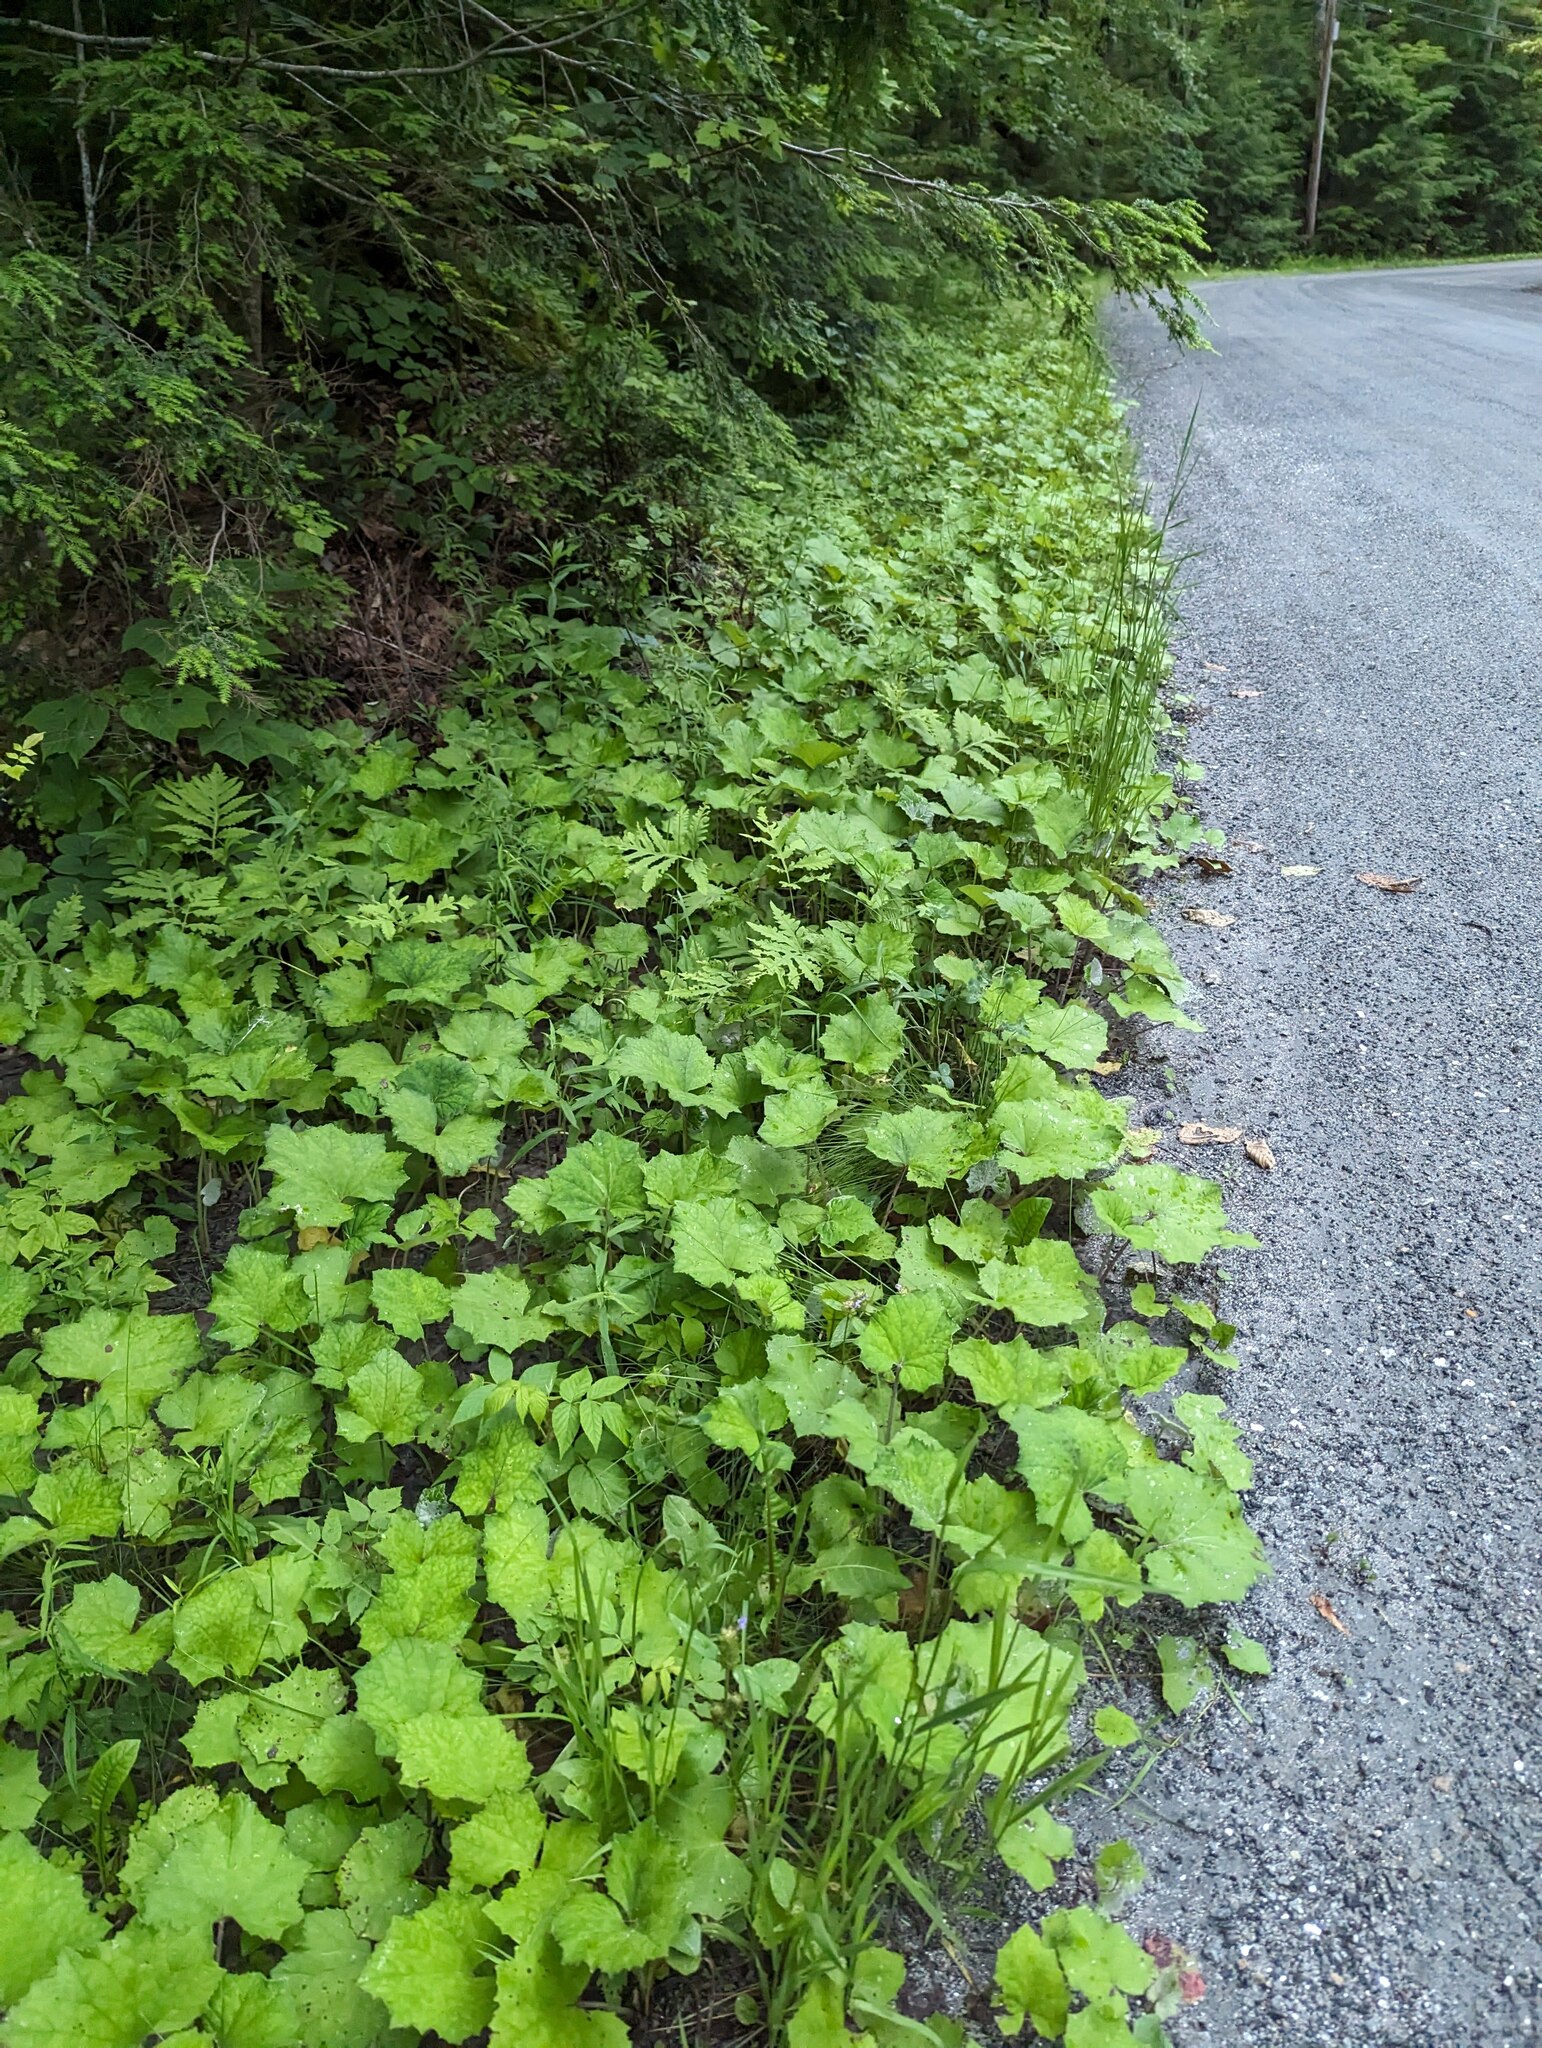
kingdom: Plantae
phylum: Tracheophyta
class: Magnoliopsida
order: Asterales
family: Asteraceae
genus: Tussilago
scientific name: Tussilago farfara
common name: Coltsfoot
